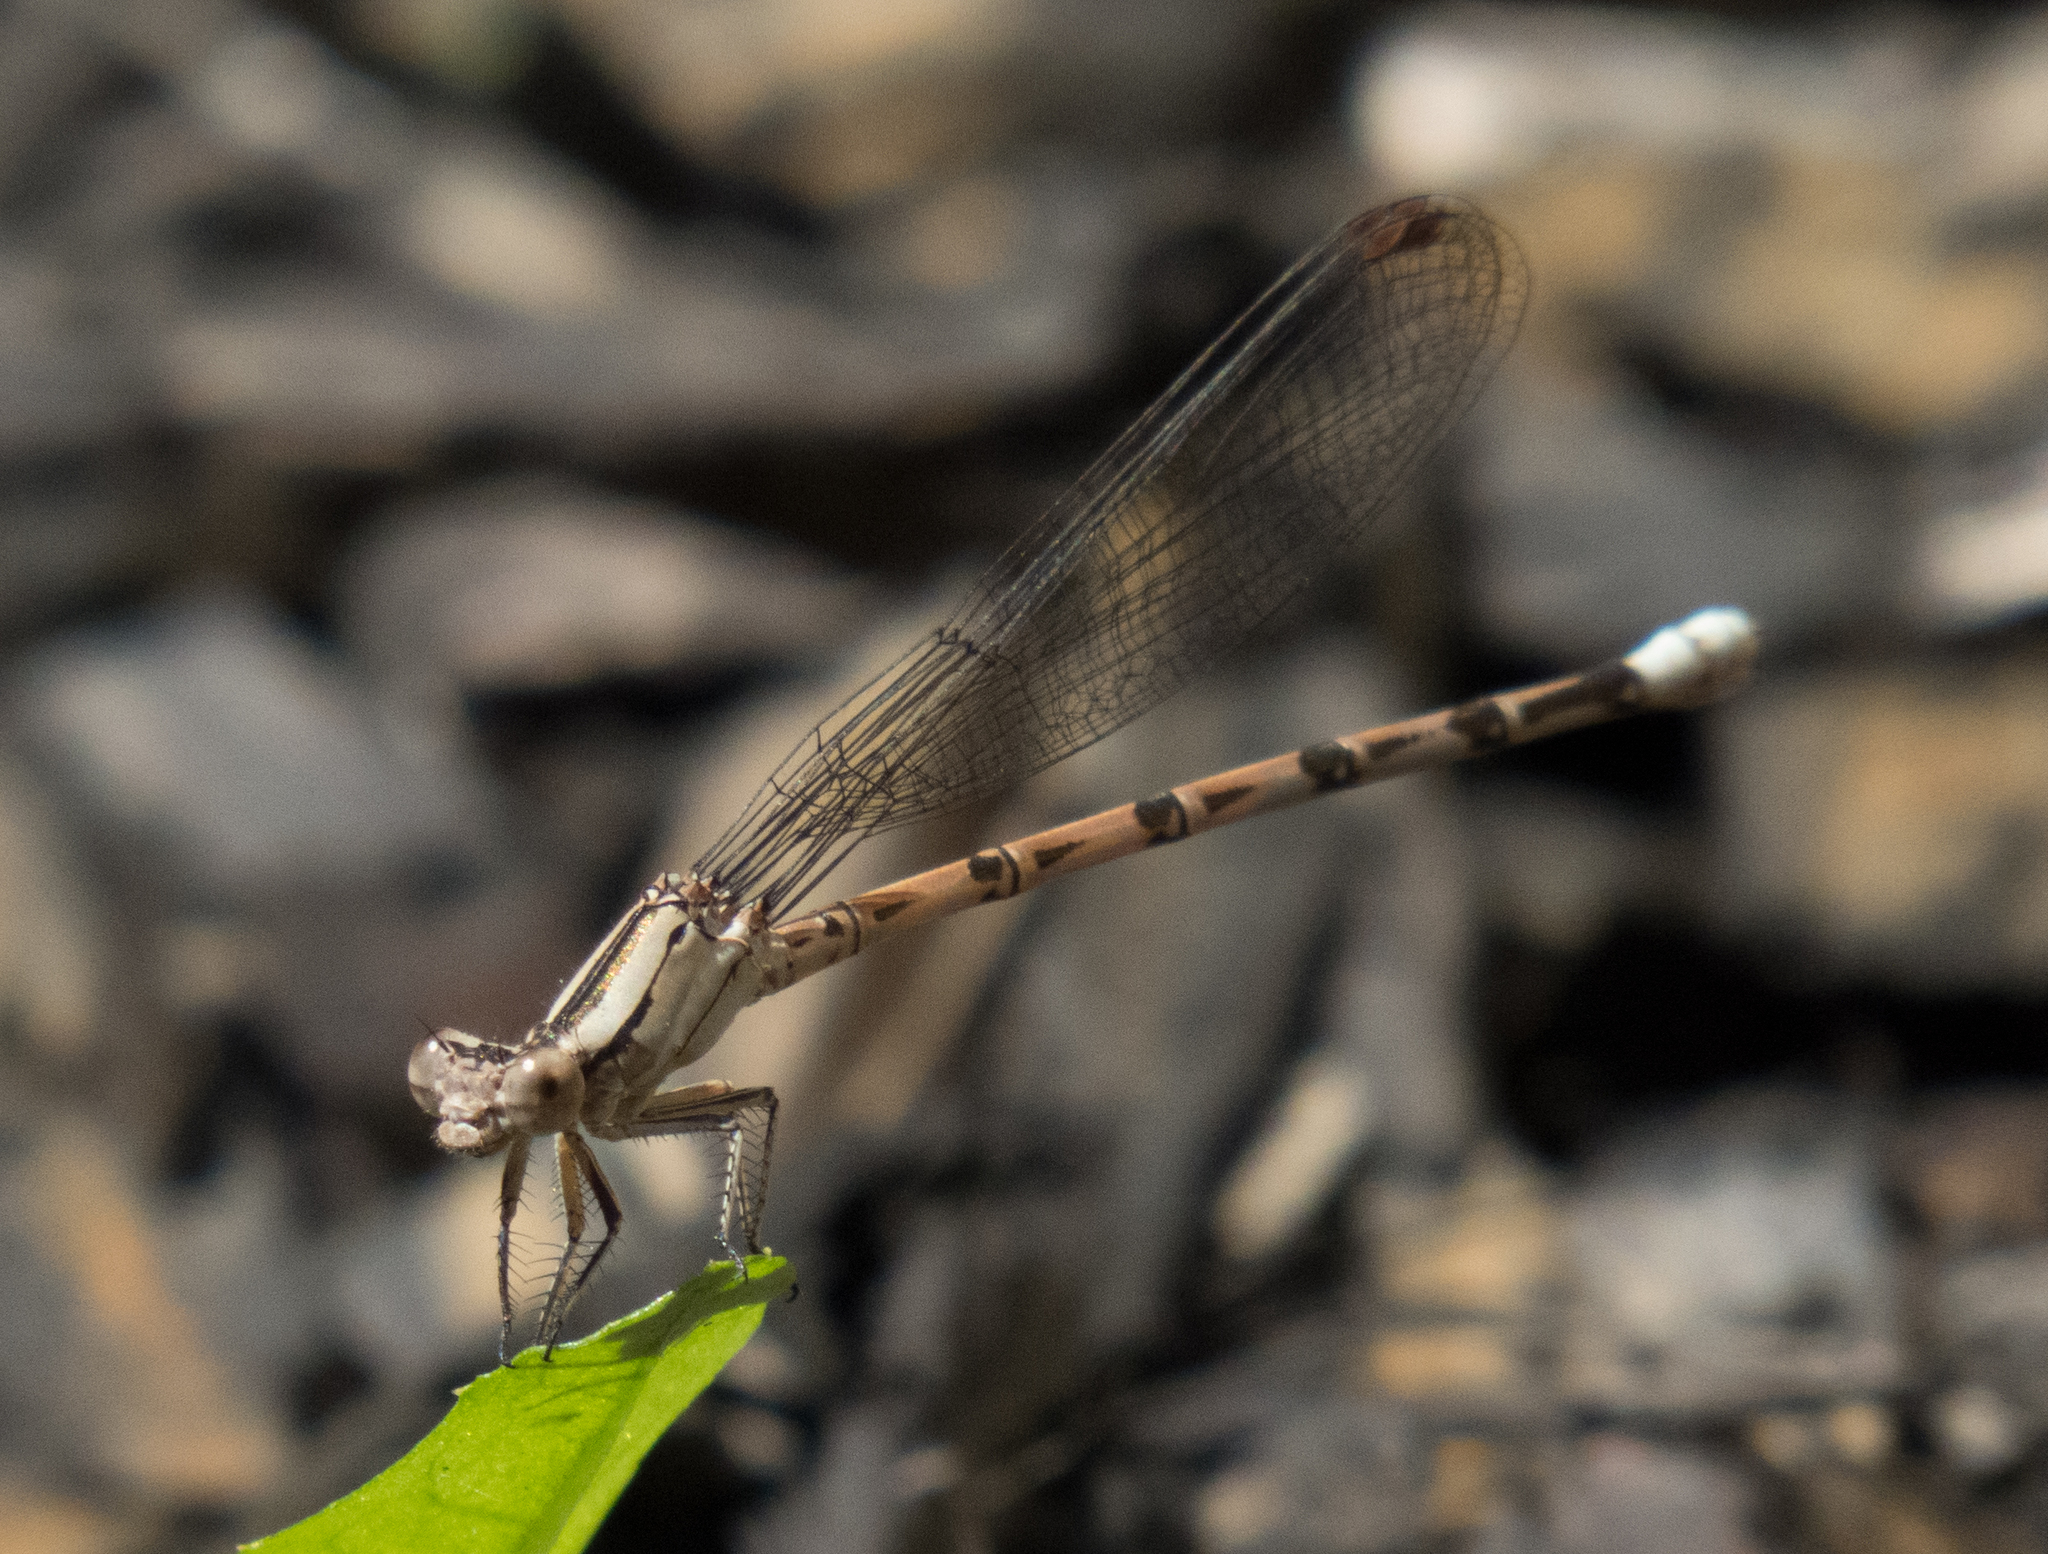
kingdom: Animalia
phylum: Arthropoda
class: Insecta
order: Odonata
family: Coenagrionidae
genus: Argia
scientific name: Argia funebris
